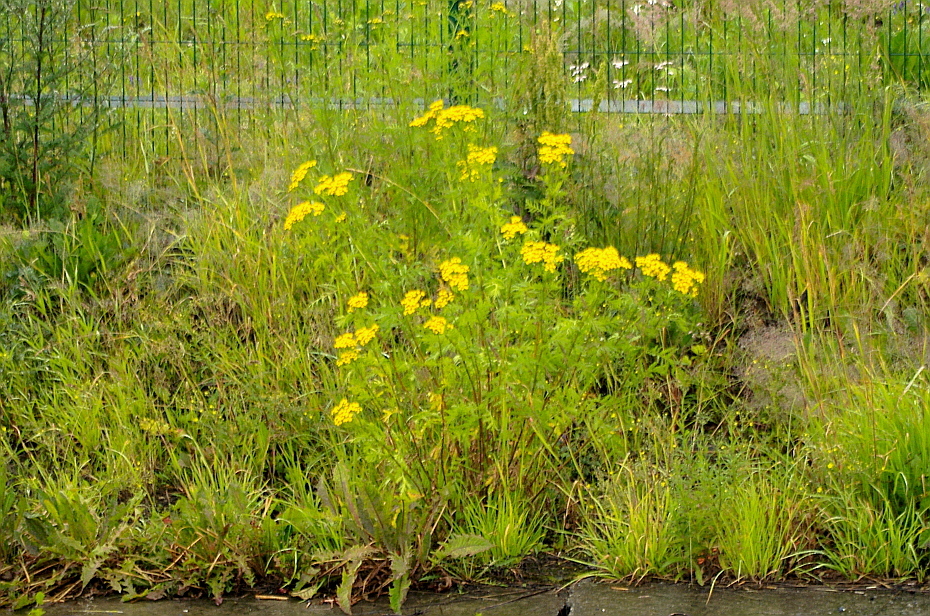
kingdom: Plantae
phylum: Tracheophyta
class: Magnoliopsida
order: Asterales
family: Asteraceae
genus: Tanacetum
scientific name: Tanacetum vulgare
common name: Common tansy
